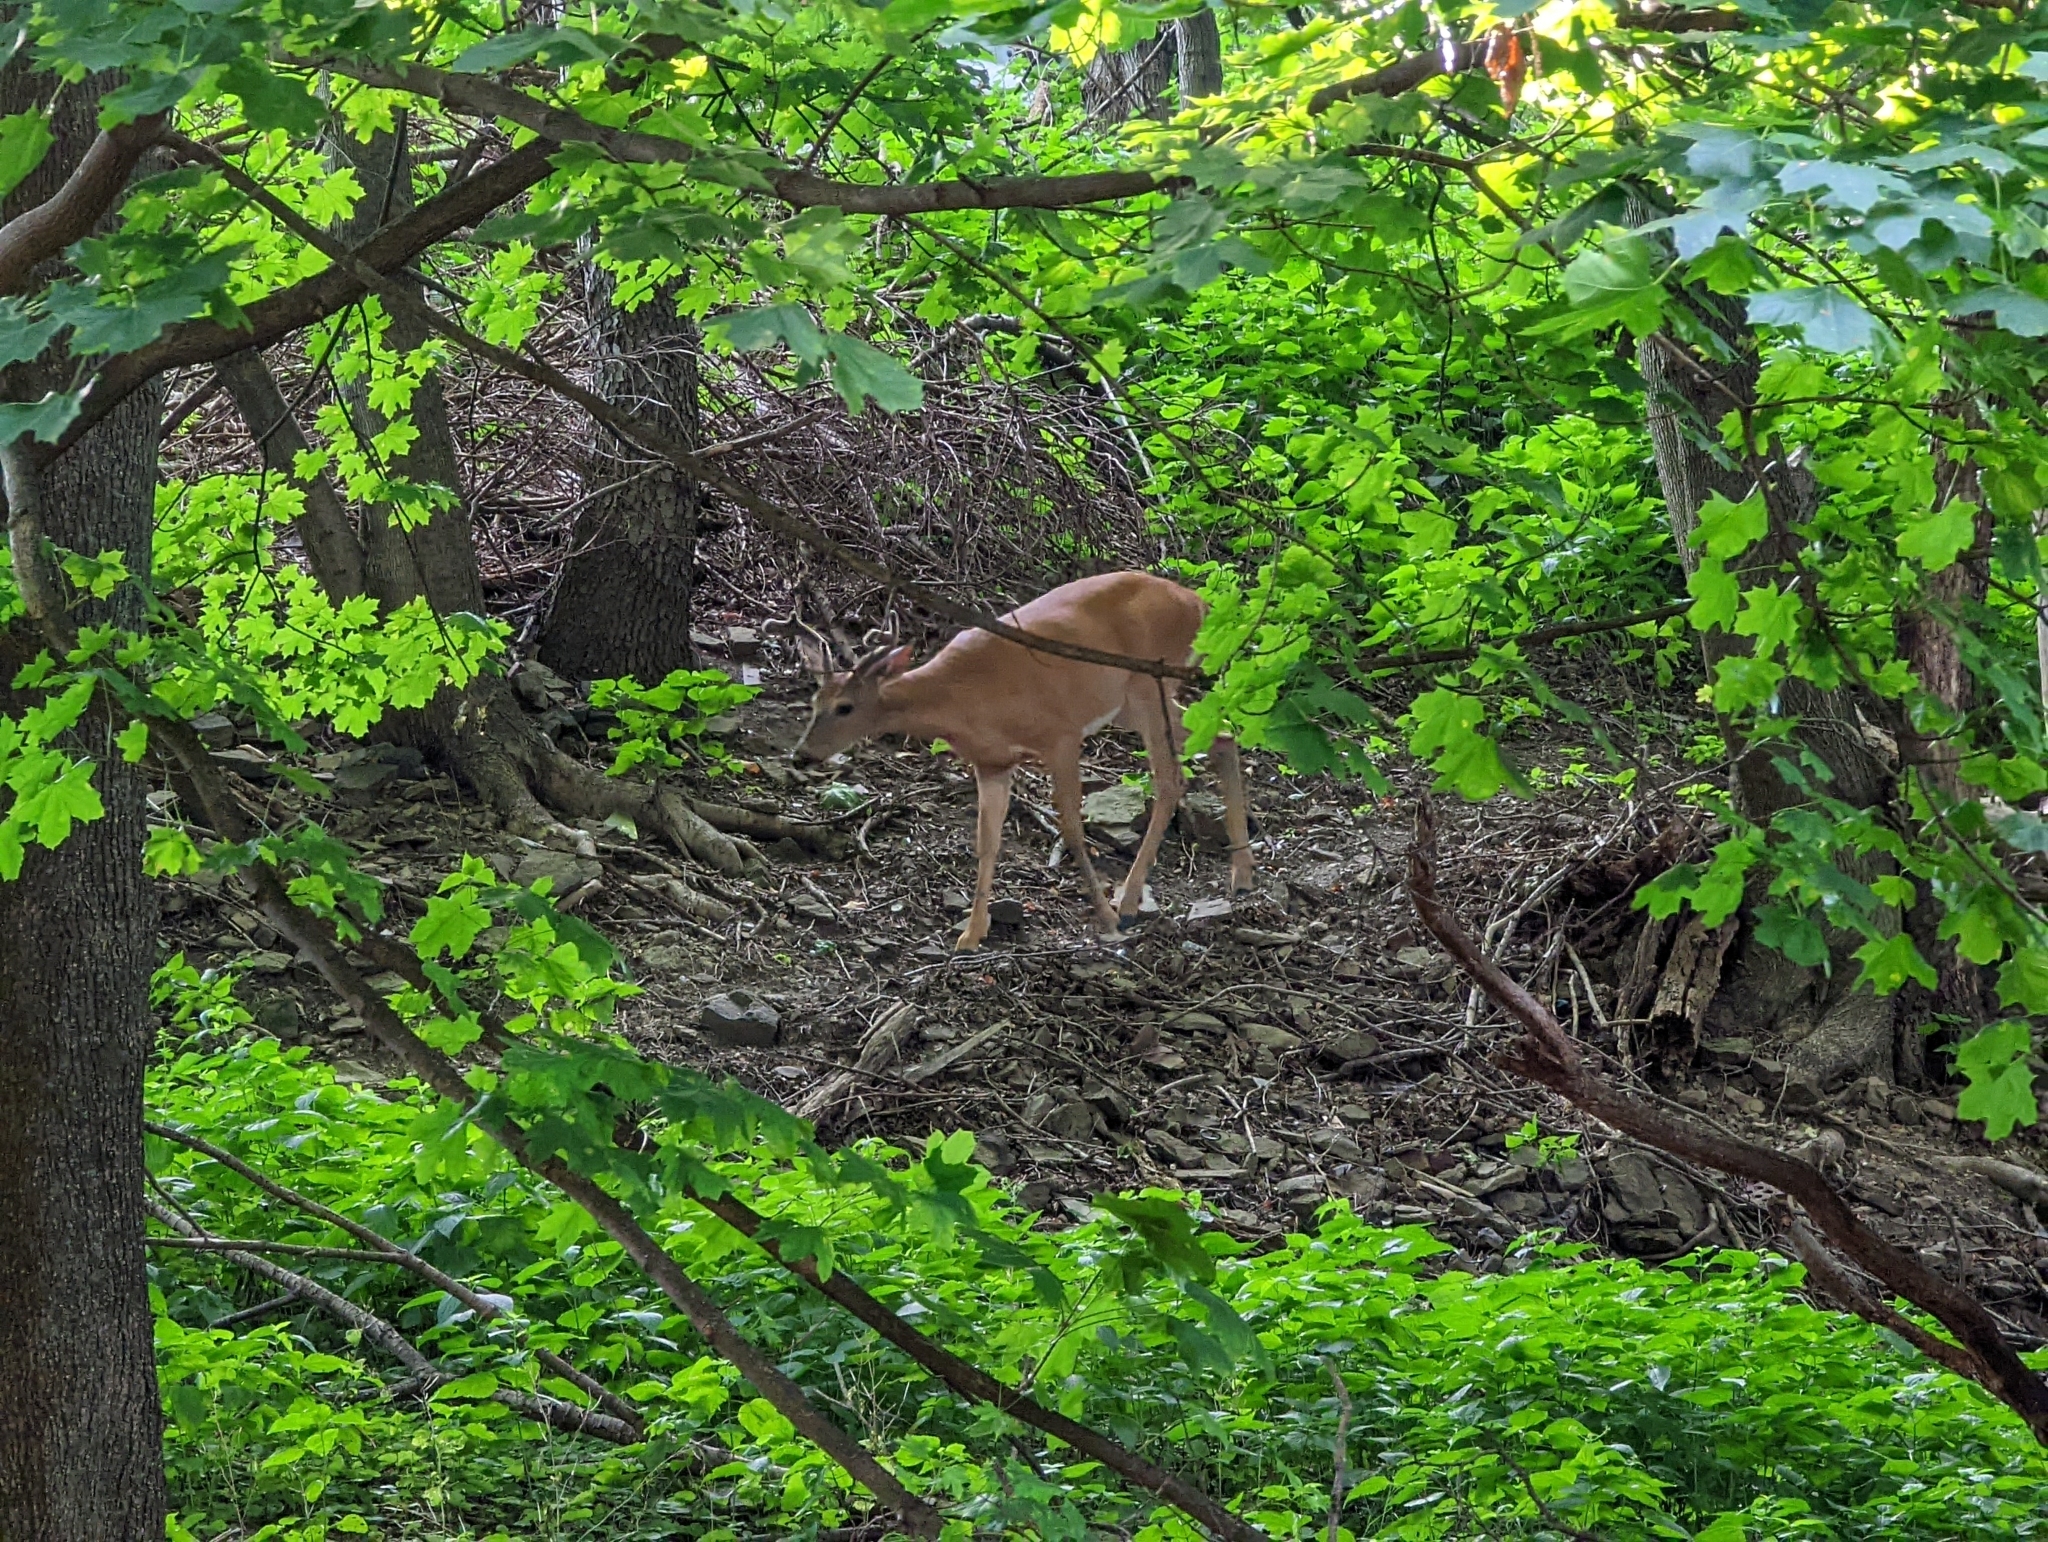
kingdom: Animalia
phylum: Chordata
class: Mammalia
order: Artiodactyla
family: Cervidae
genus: Odocoileus
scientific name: Odocoileus virginianus
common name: White-tailed deer
